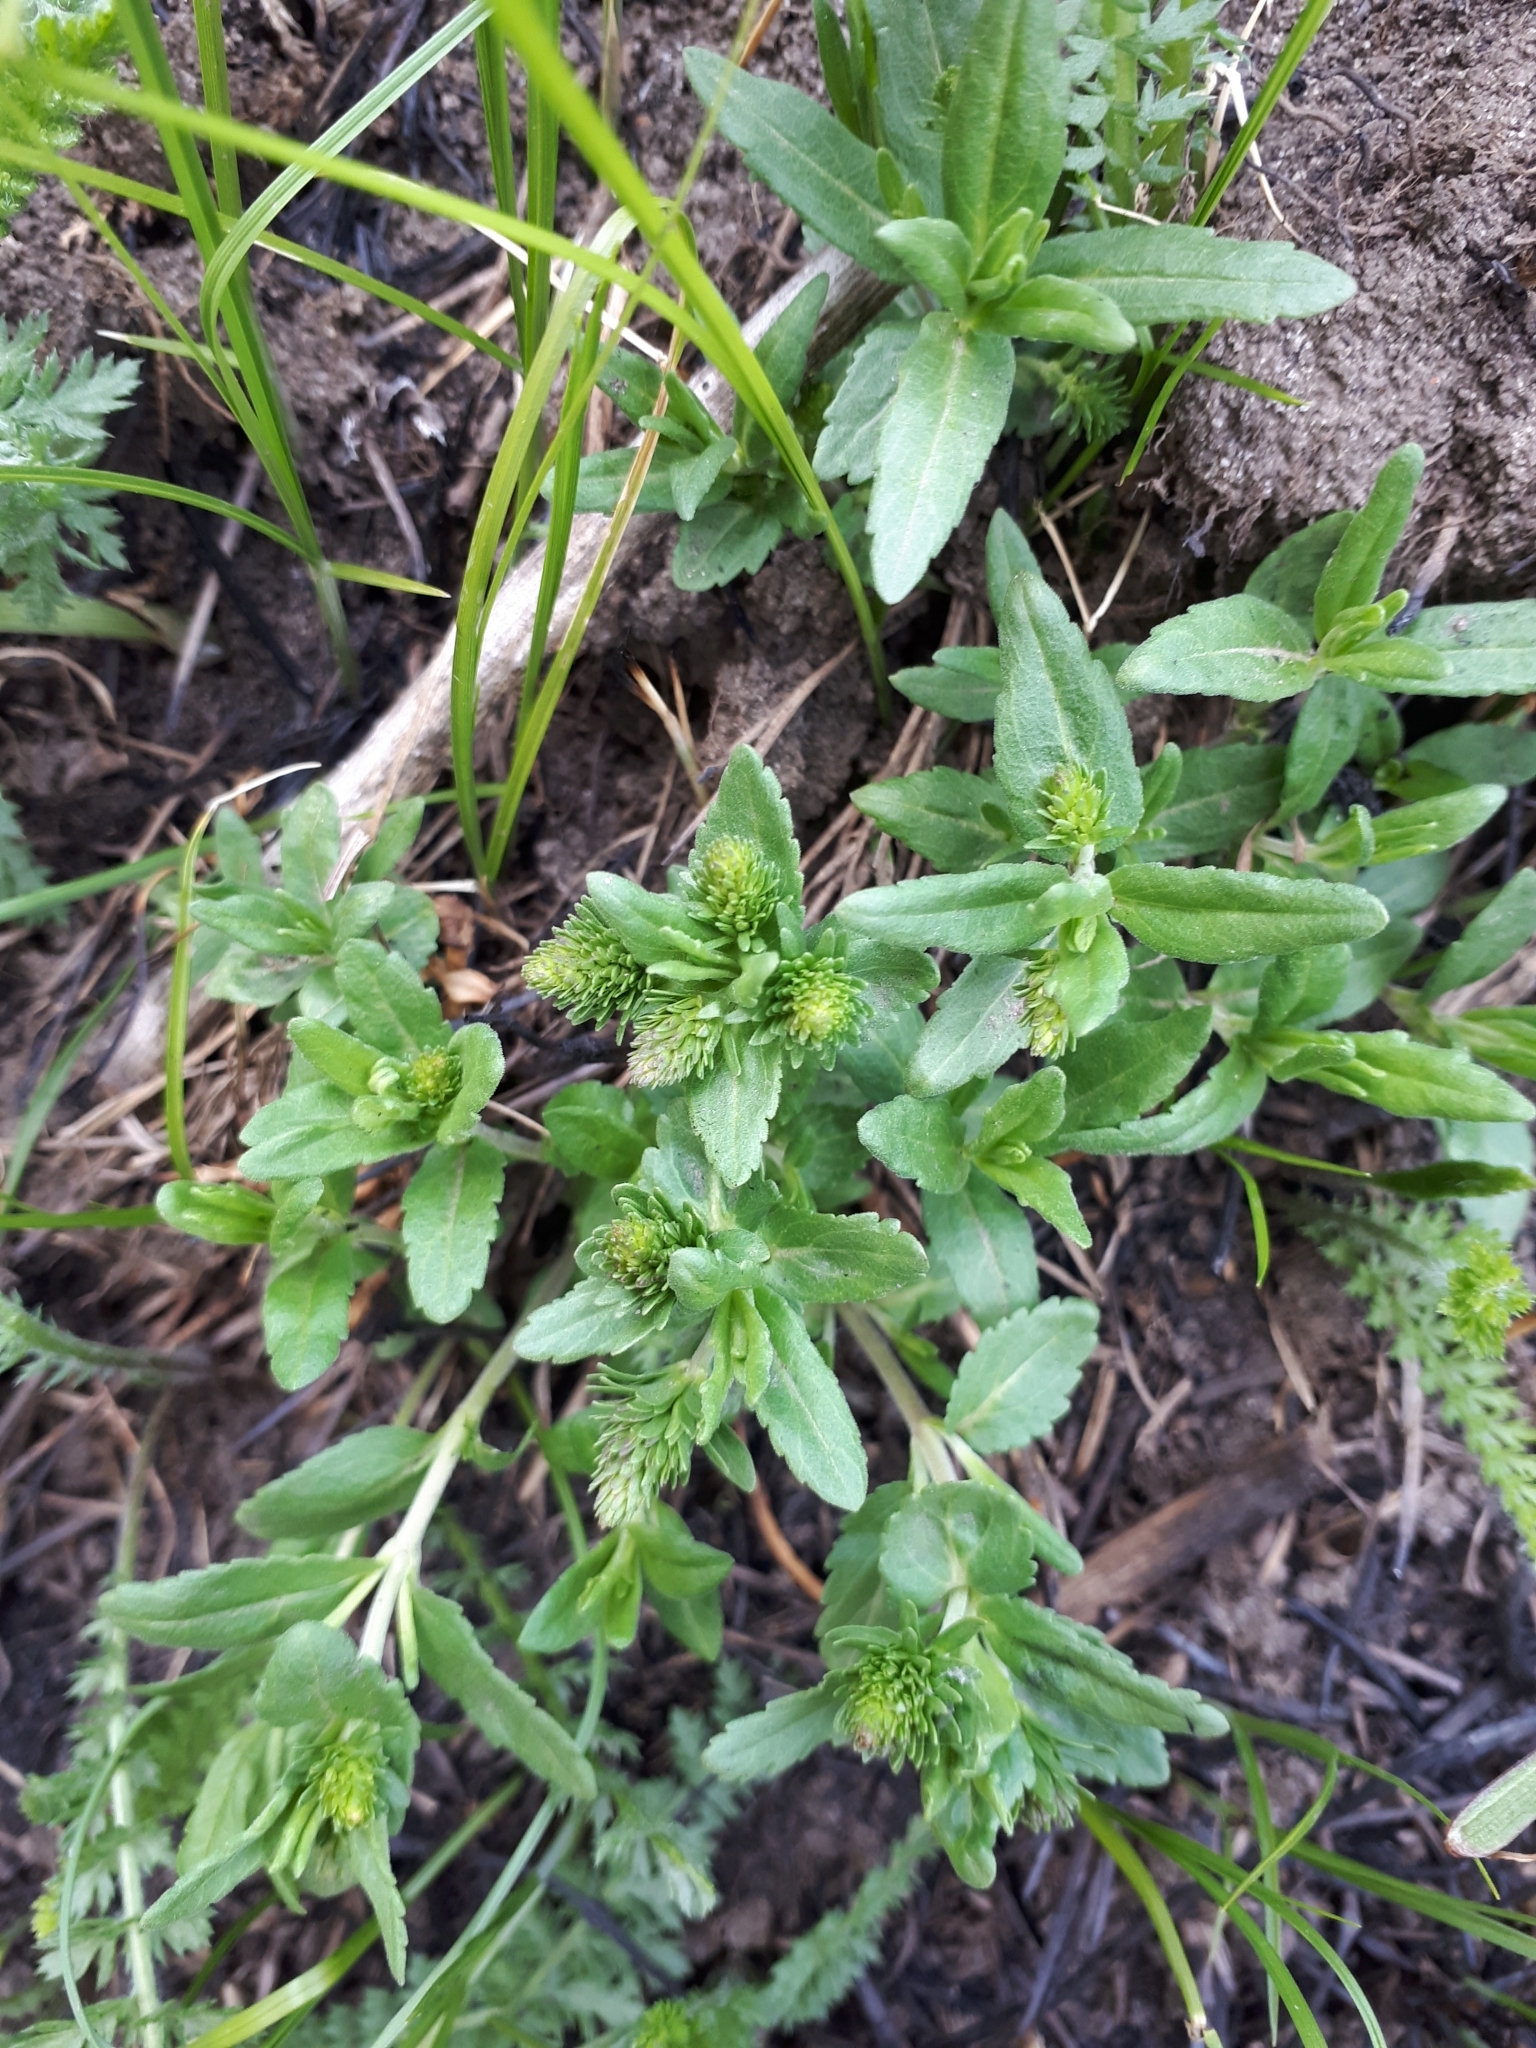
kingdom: Plantae
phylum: Tracheophyta
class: Magnoliopsida
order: Lamiales
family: Plantaginaceae
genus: Veronica
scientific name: Veronica prostrata
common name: Prostrate speedwell
